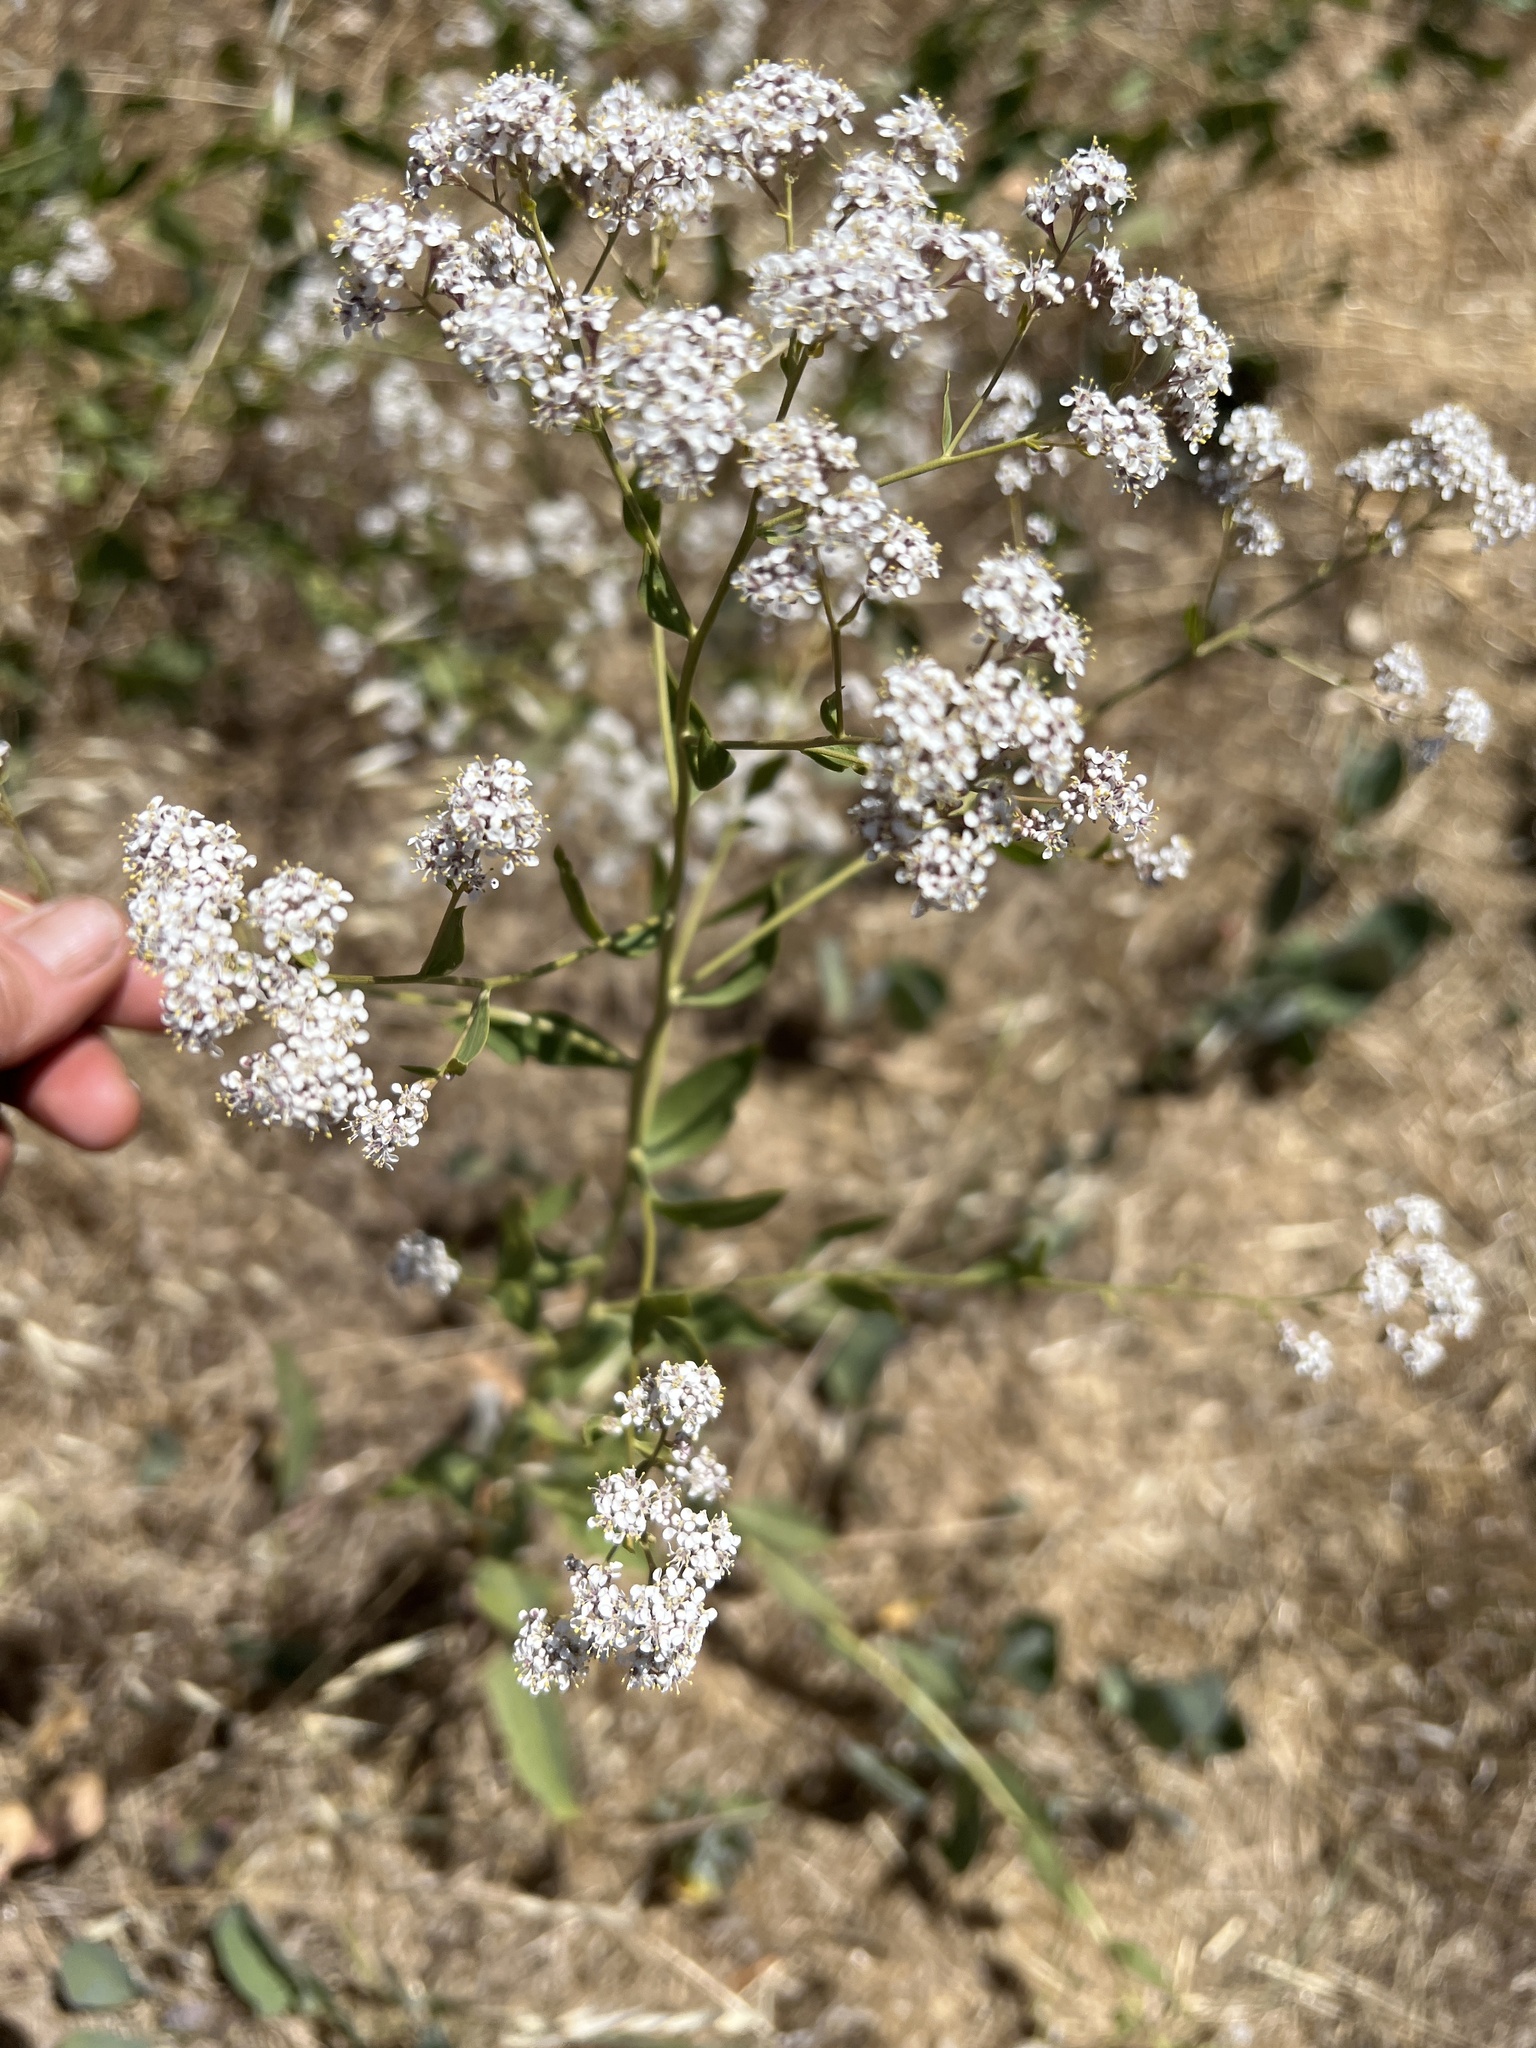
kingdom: Plantae
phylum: Tracheophyta
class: Magnoliopsida
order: Brassicales
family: Brassicaceae
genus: Lepidium
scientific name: Lepidium latifolium
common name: Dittander
